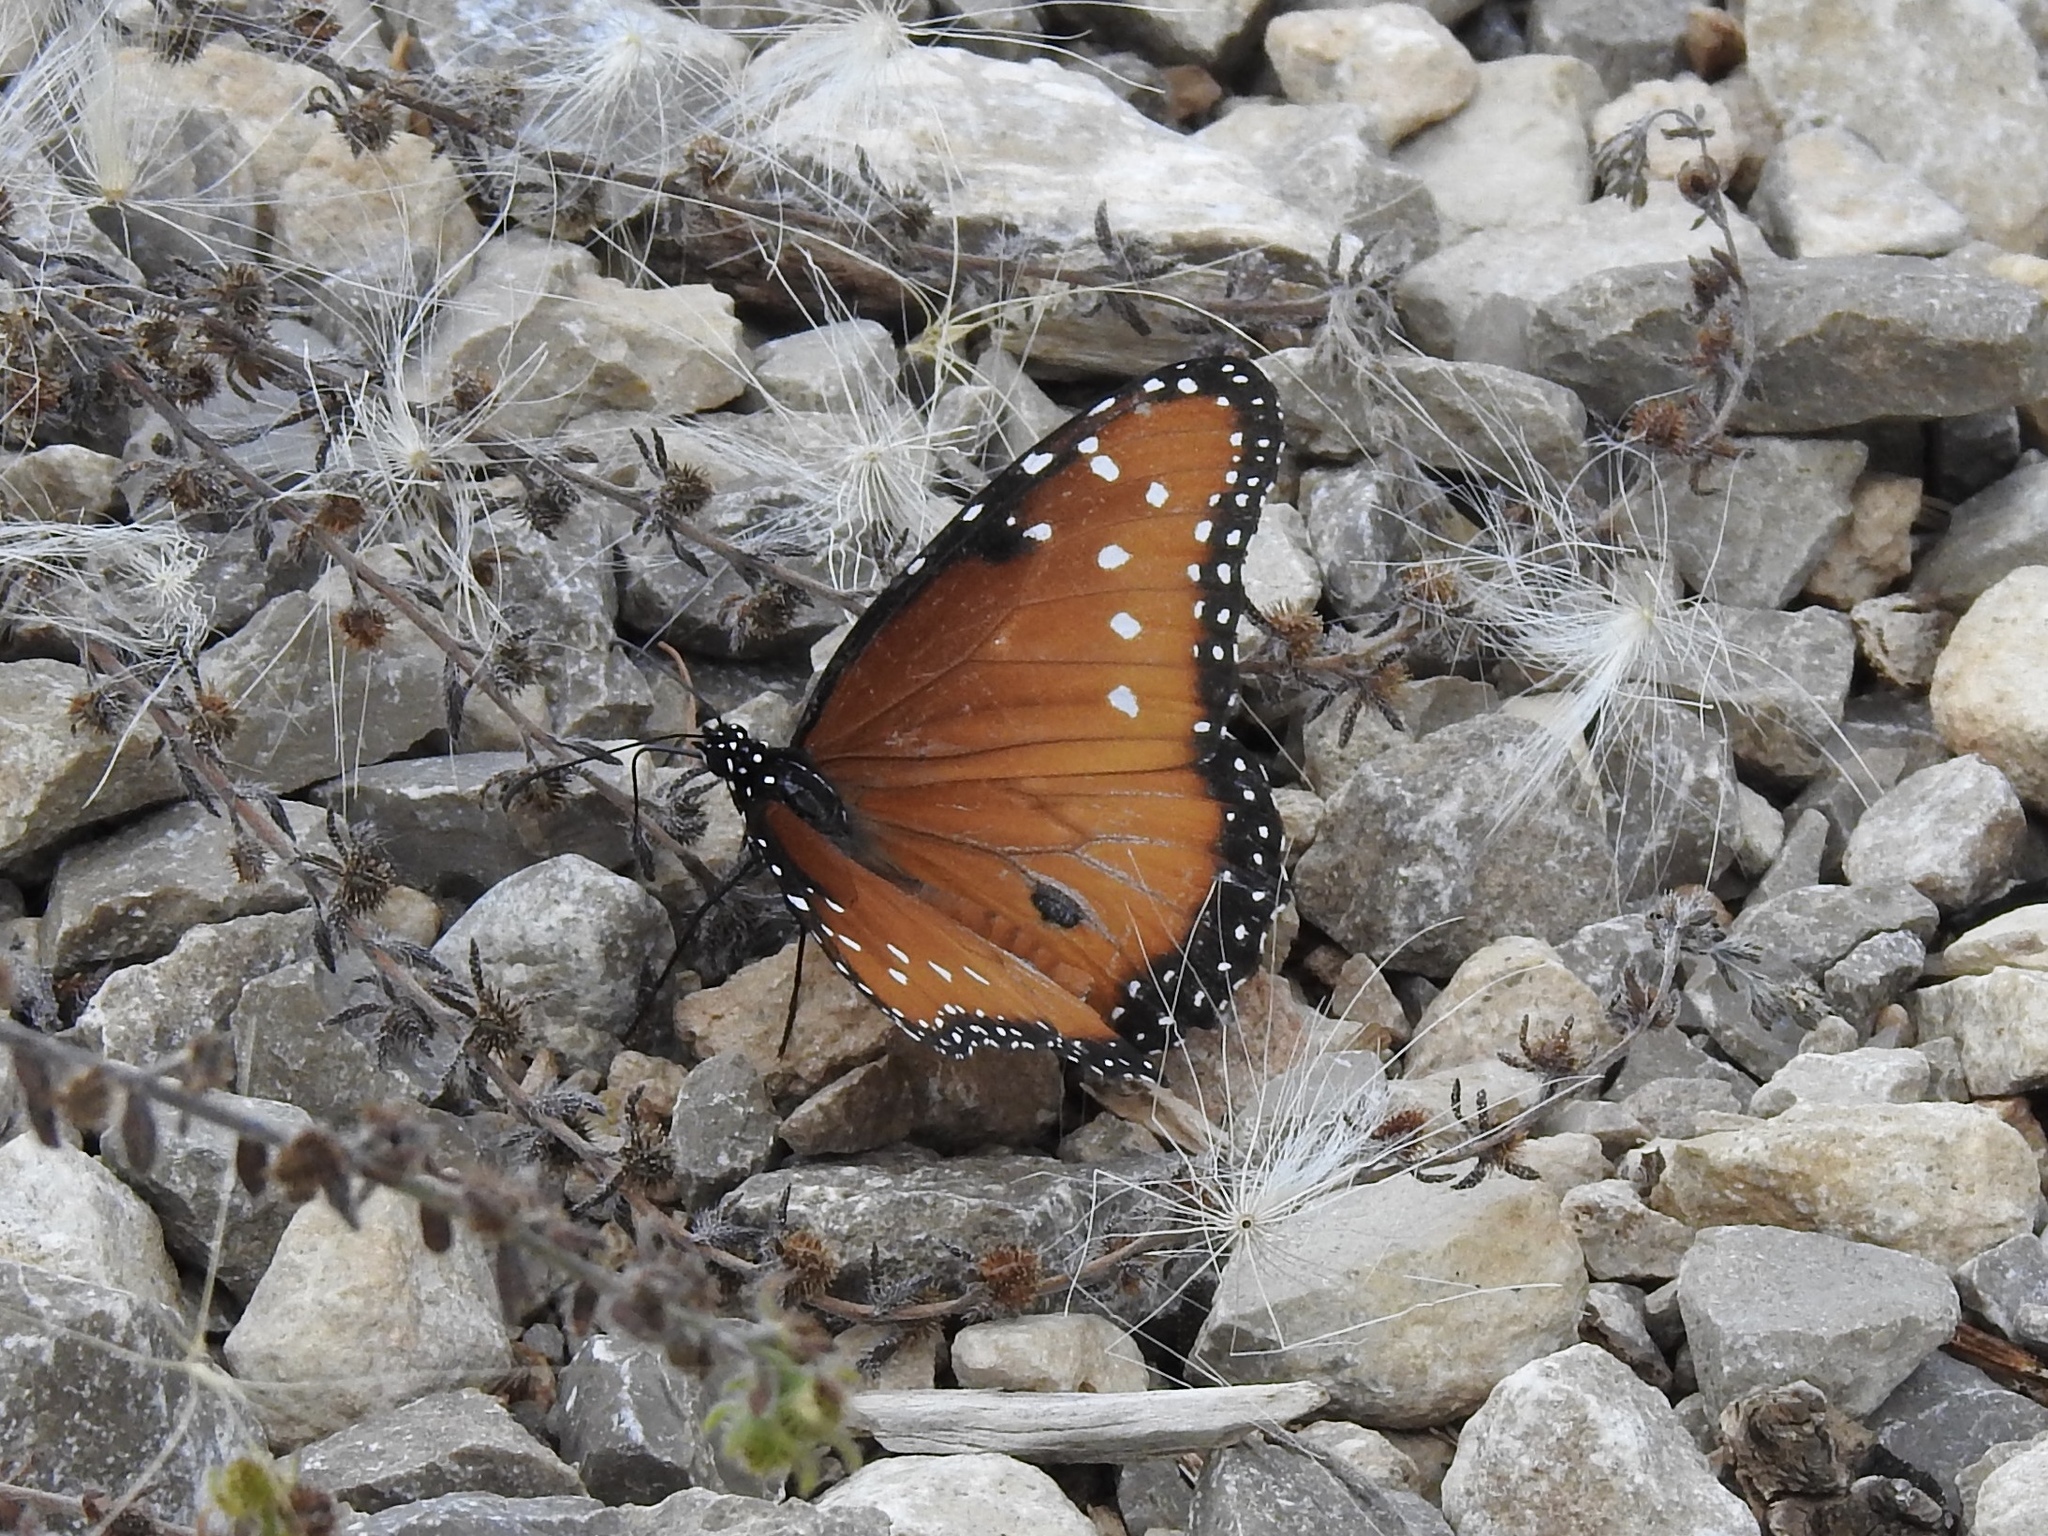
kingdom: Animalia
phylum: Arthropoda
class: Insecta
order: Lepidoptera
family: Nymphalidae
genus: Danaus
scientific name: Danaus gilippus
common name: Queen
